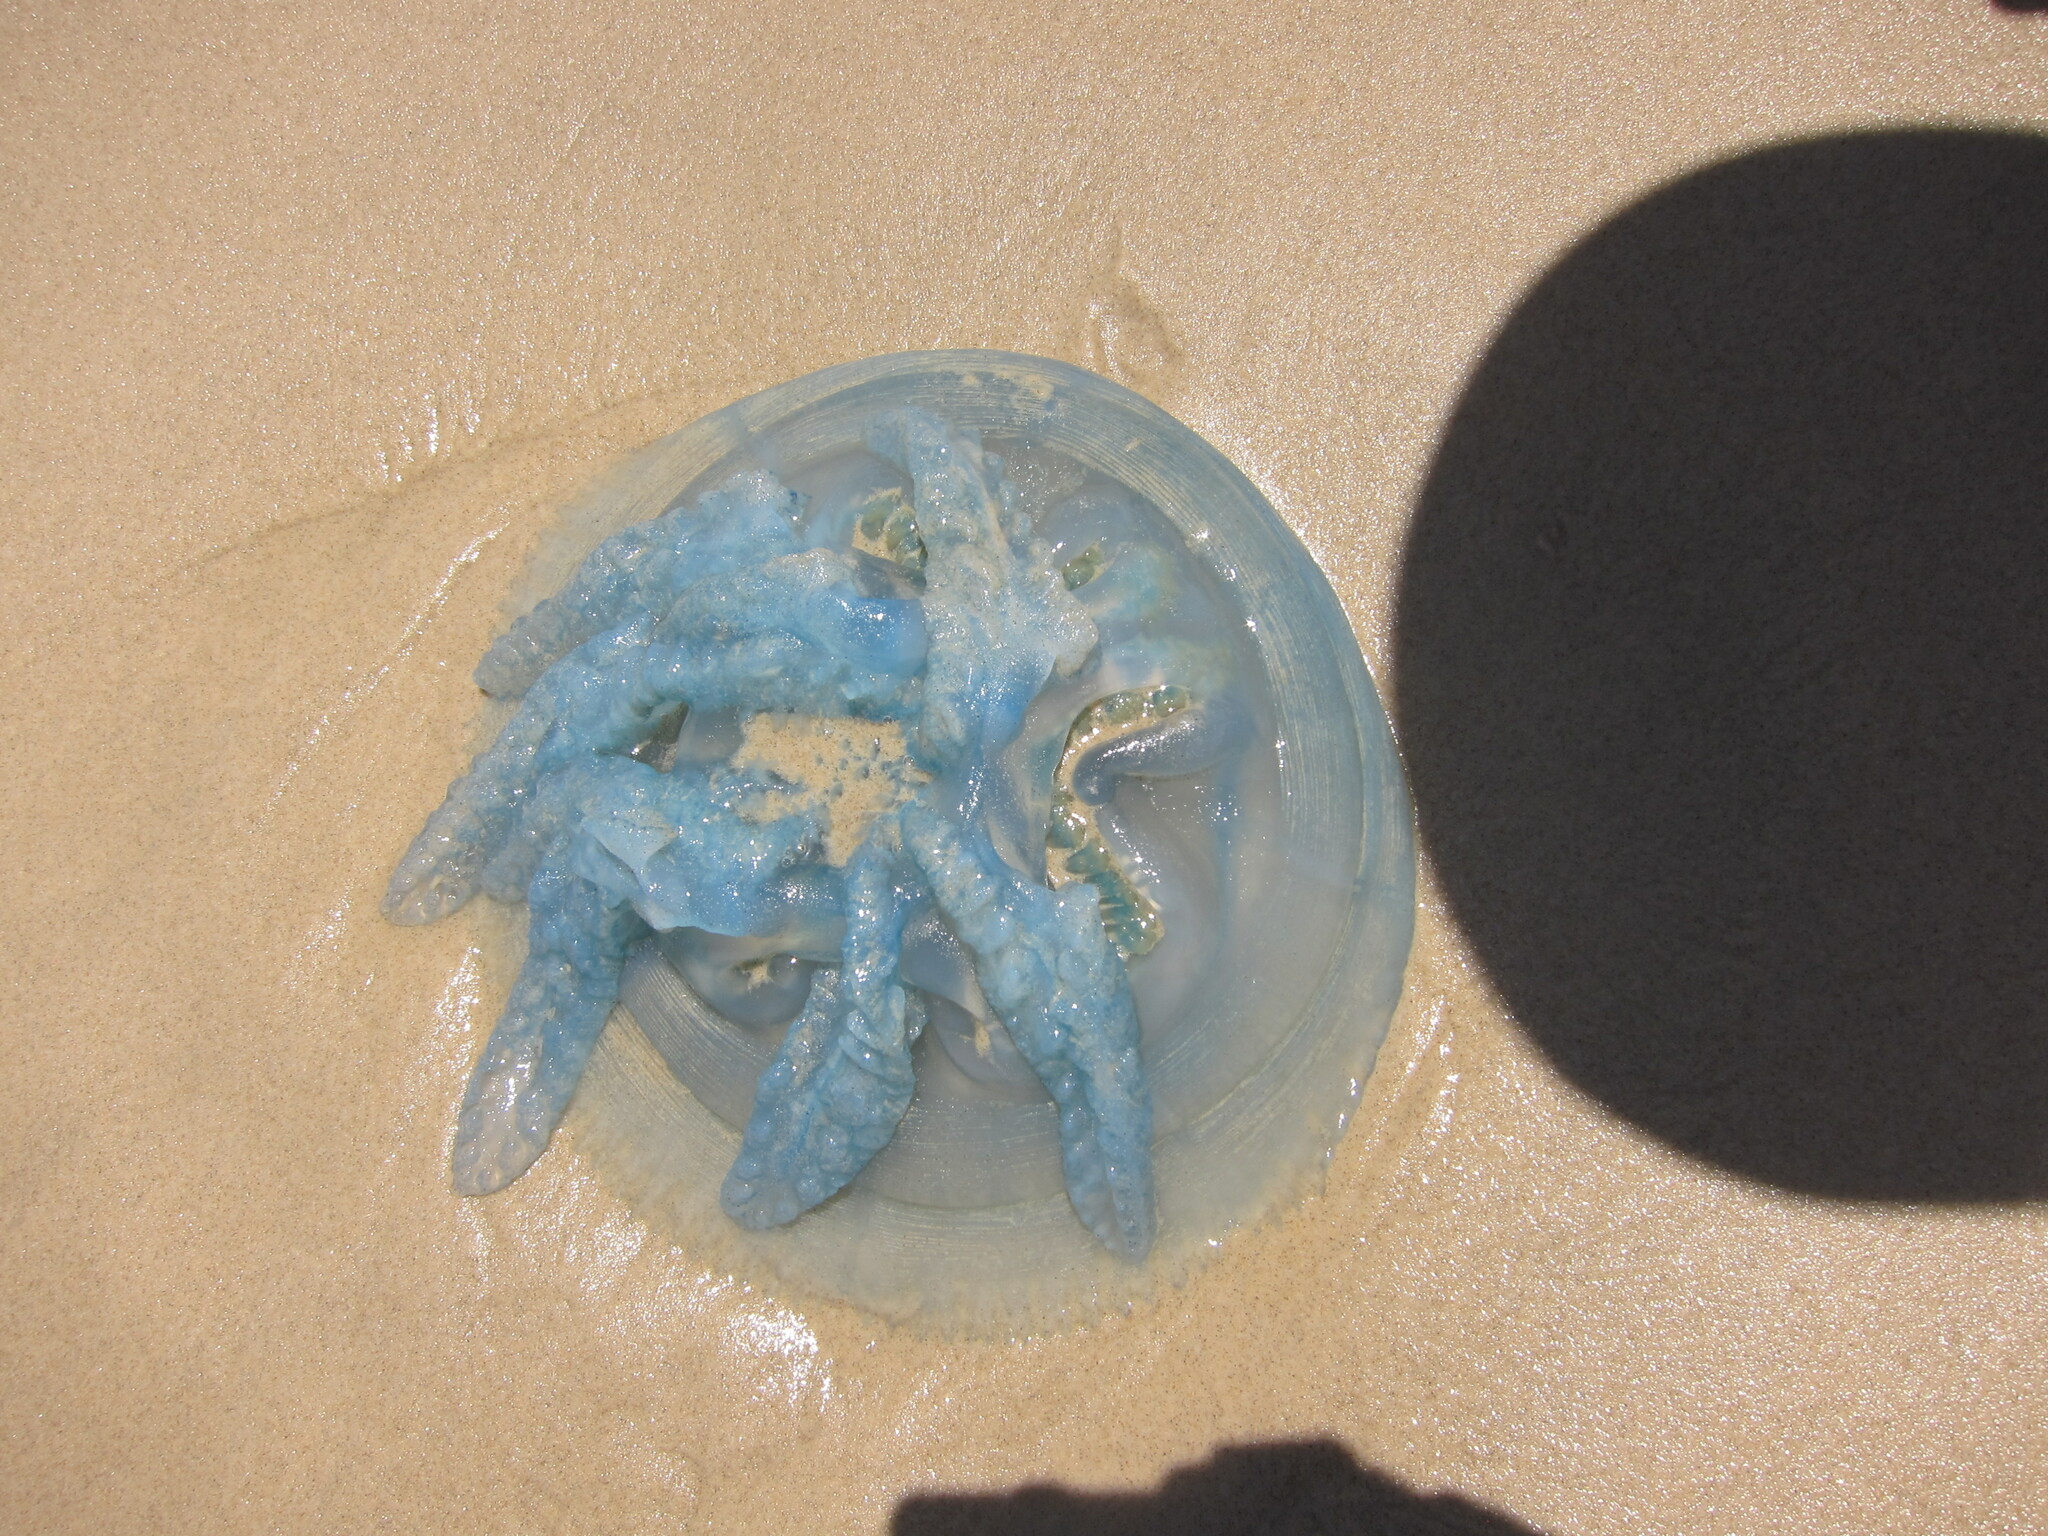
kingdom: Animalia
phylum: Cnidaria
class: Scyphozoa
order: Rhizostomeae
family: Catostylidae
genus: Catostylus
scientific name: Catostylus mosaicus
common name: Blue blubber
